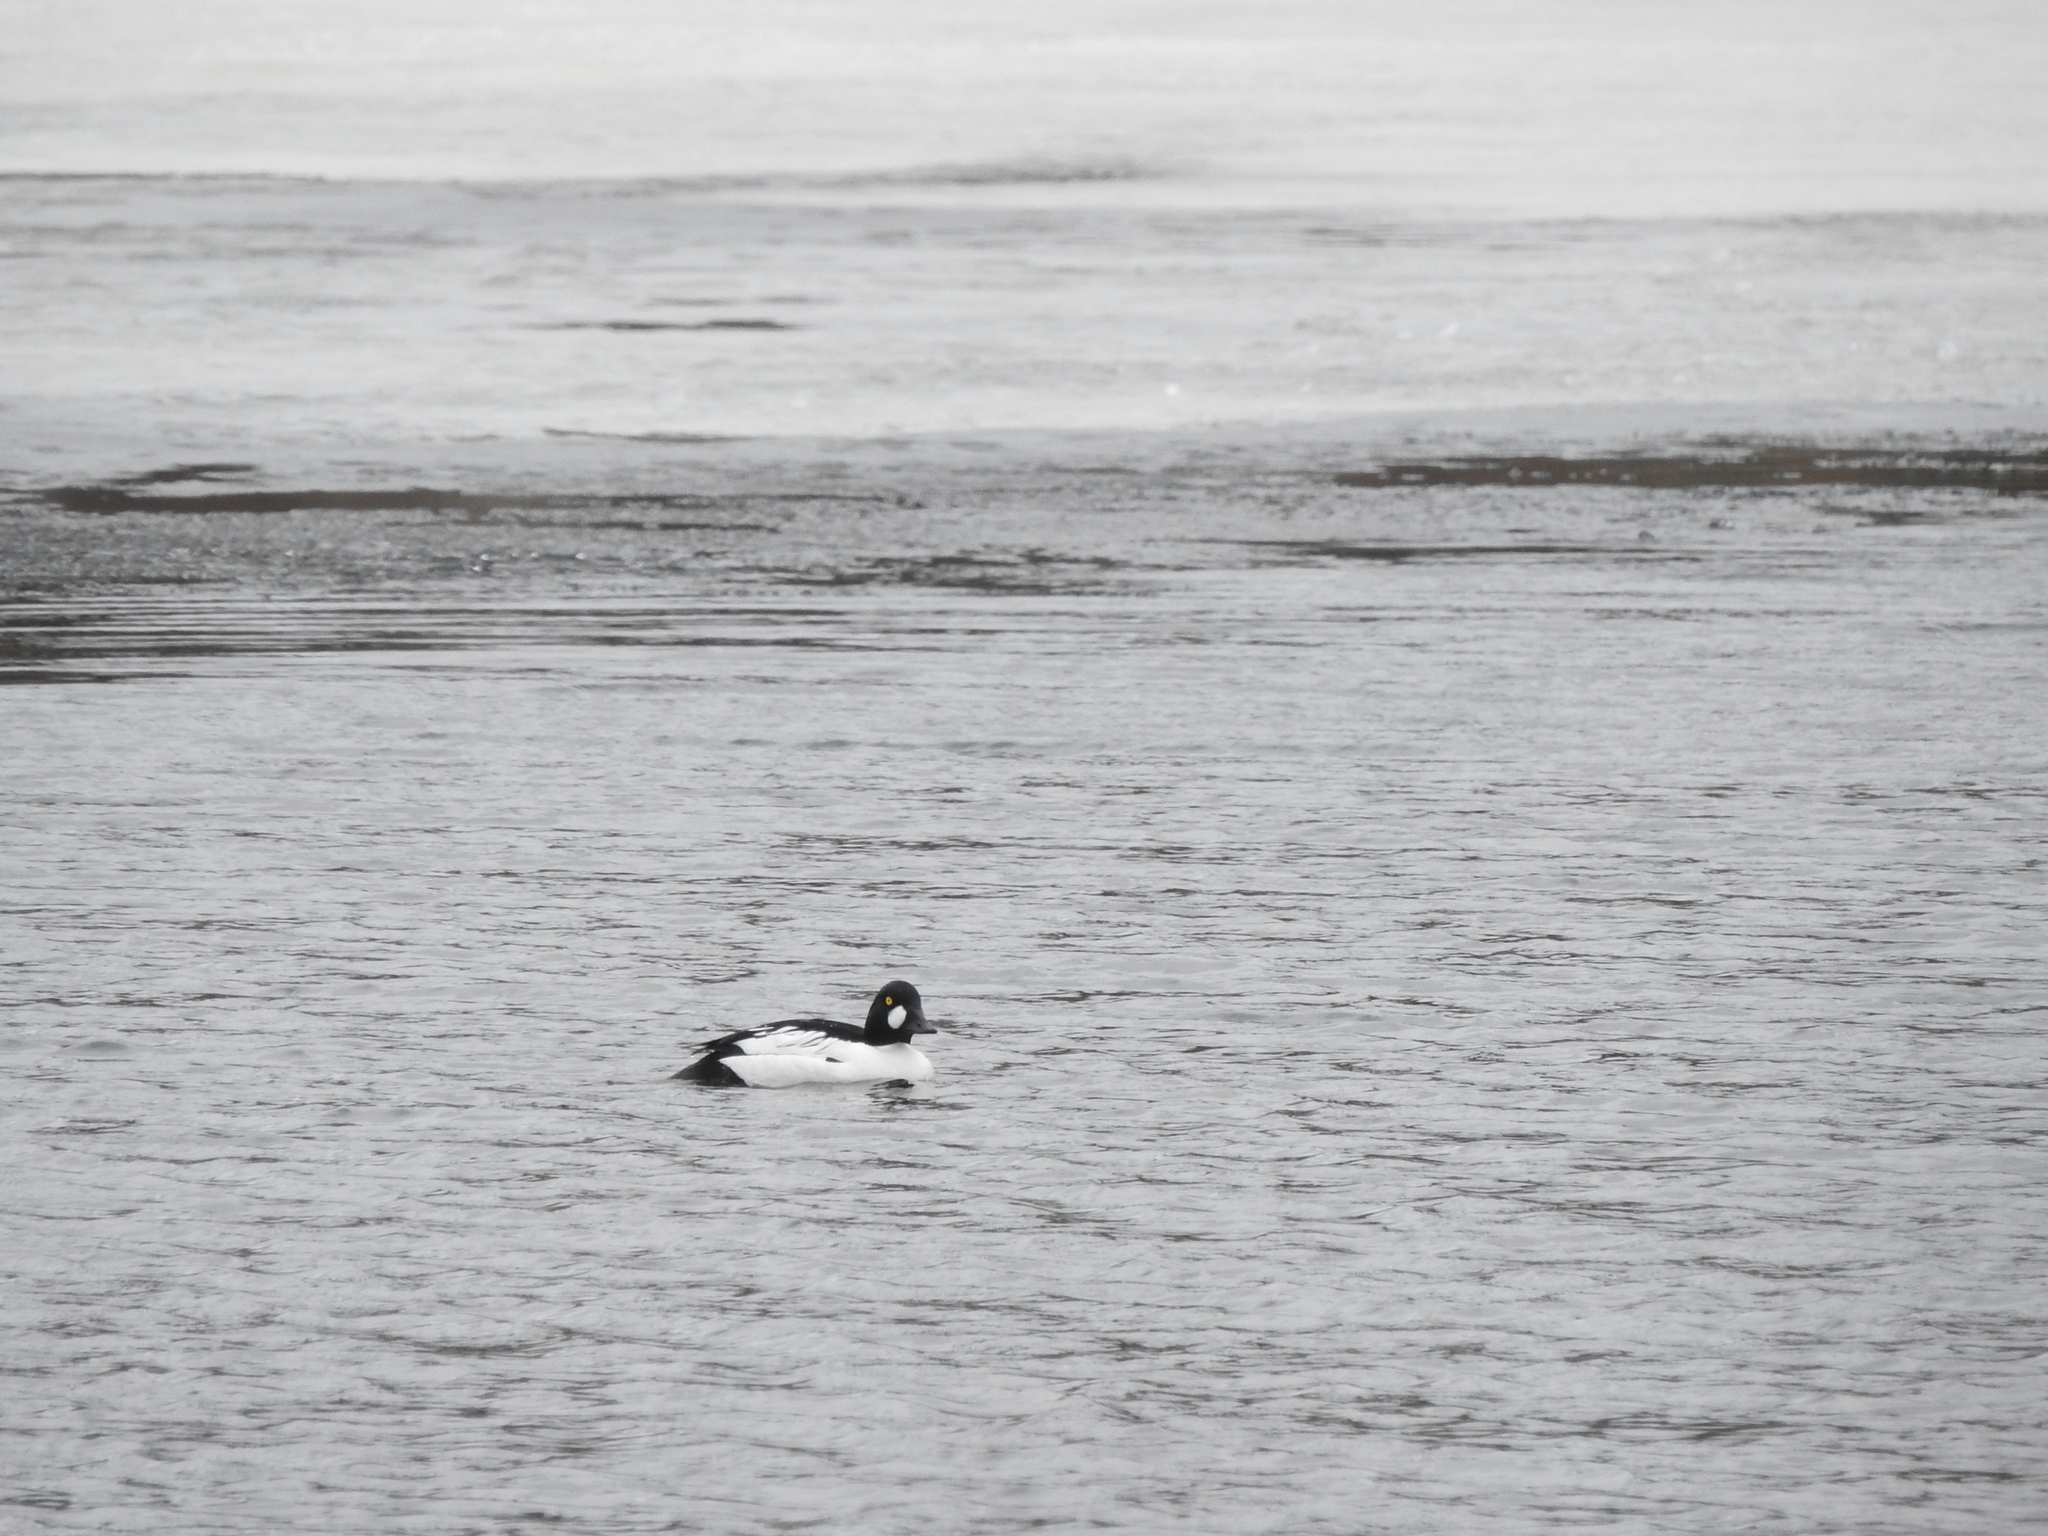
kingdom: Animalia
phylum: Chordata
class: Aves
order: Anseriformes
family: Anatidae
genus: Bucephala
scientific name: Bucephala clangula
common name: Common goldeneye
